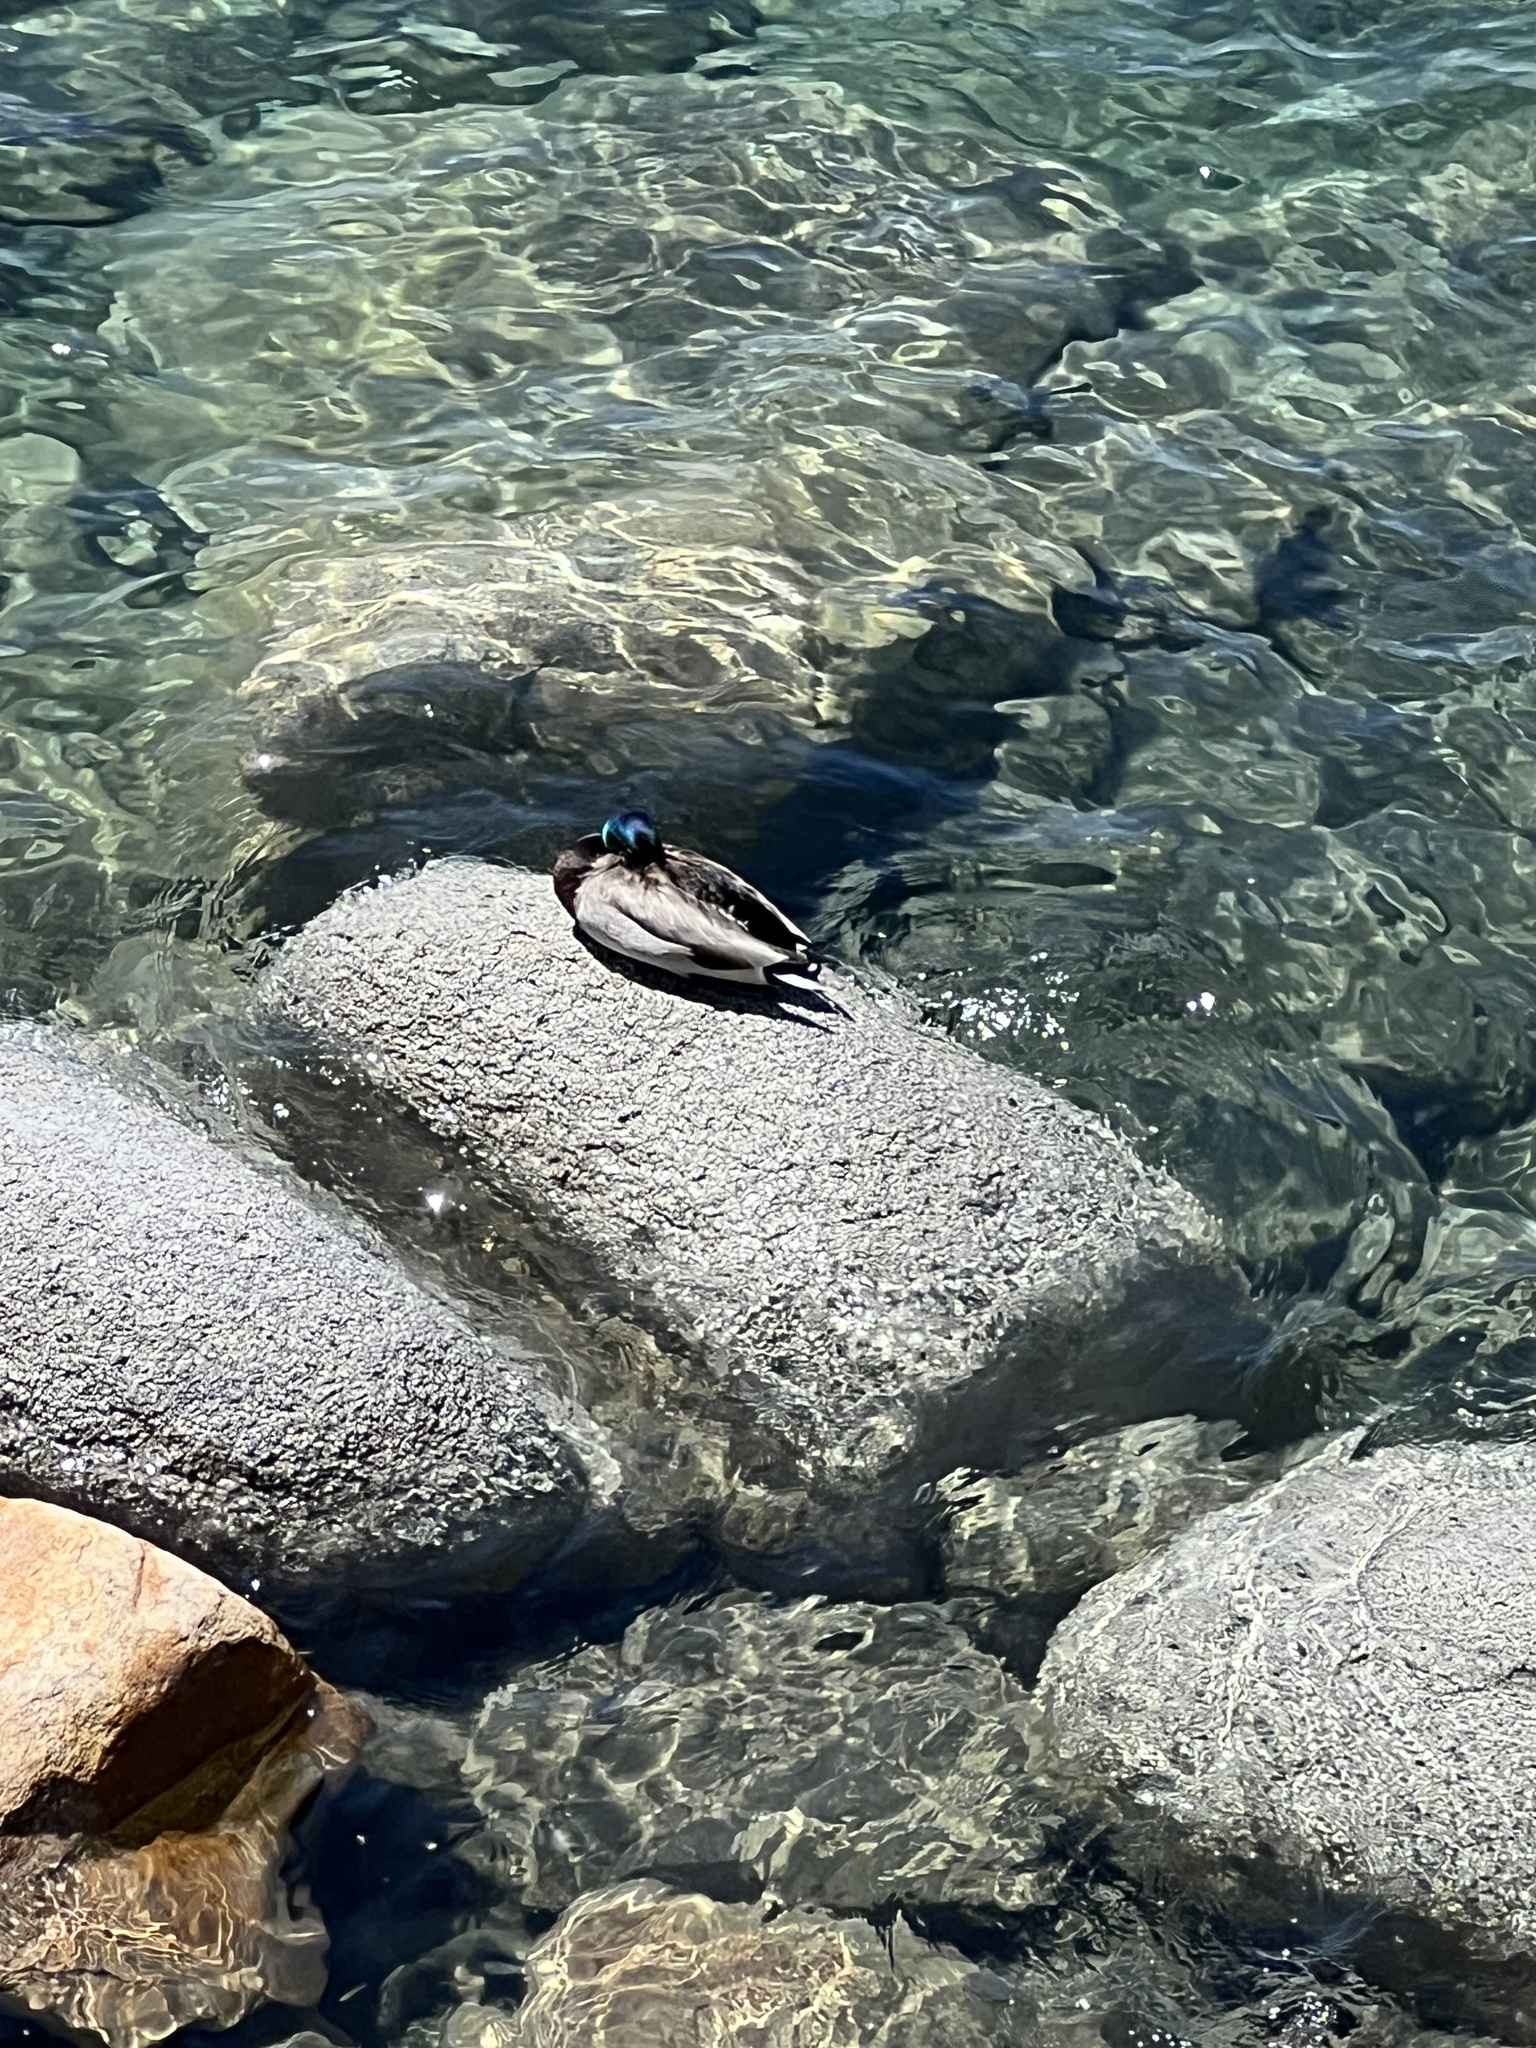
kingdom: Animalia
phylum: Chordata
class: Aves
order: Anseriformes
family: Anatidae
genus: Anas
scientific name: Anas platyrhynchos
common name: Mallard
